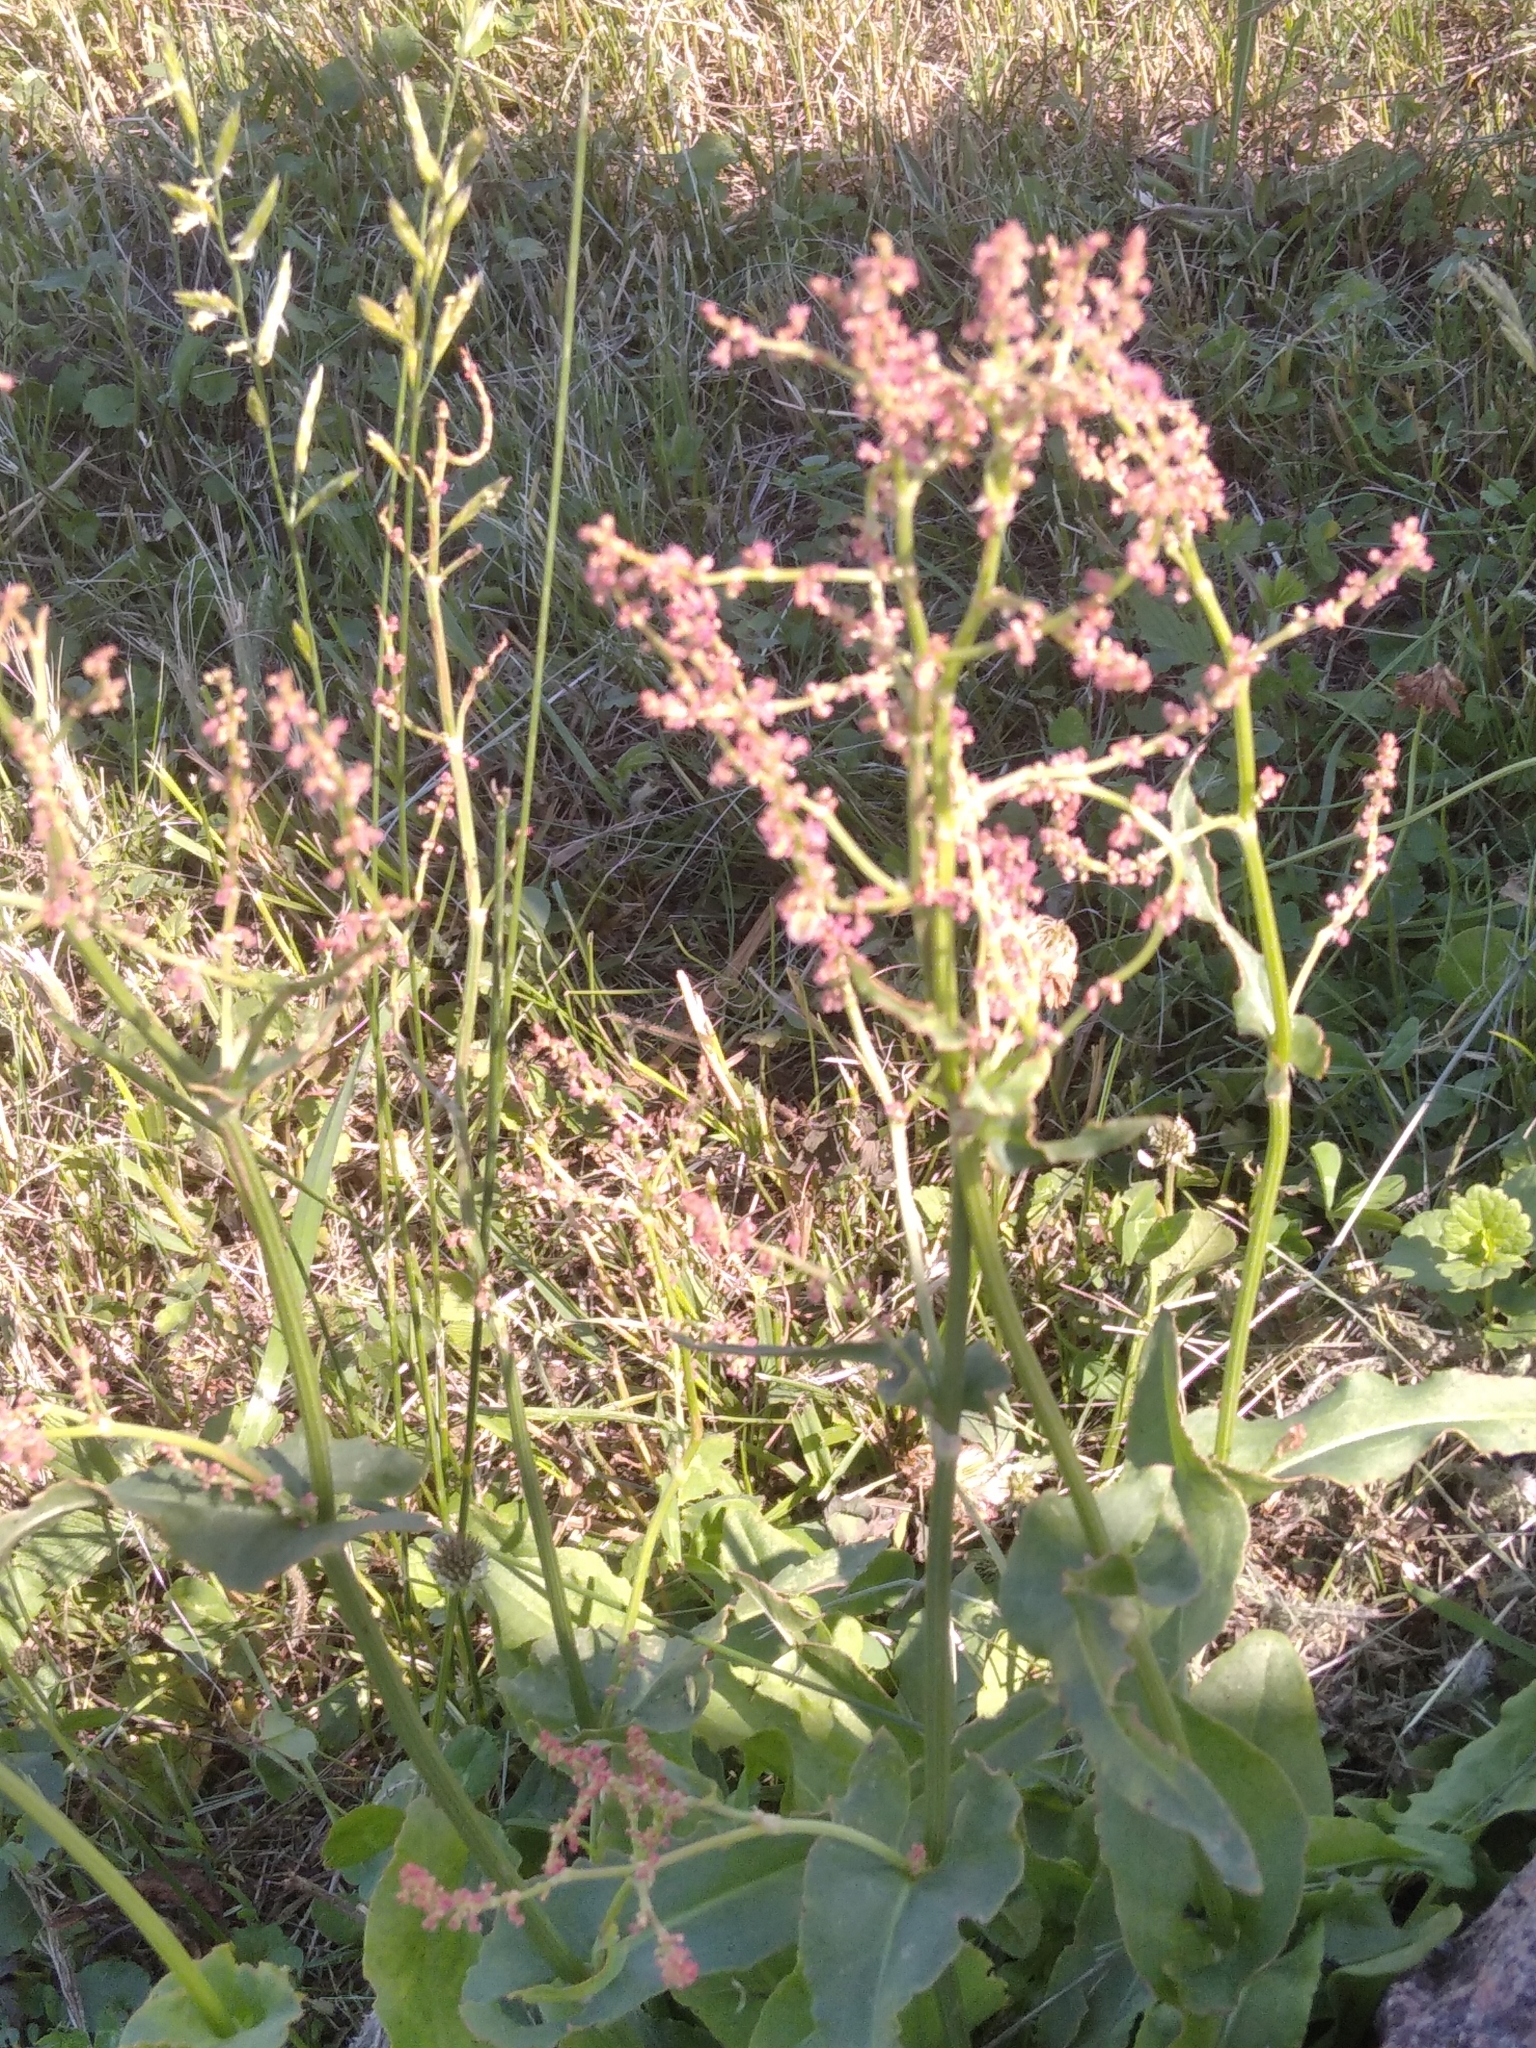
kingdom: Plantae
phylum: Tracheophyta
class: Magnoliopsida
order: Caryophyllales
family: Polygonaceae
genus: Rumex
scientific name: Rumex thyrsiflorus
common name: Garden sorrel
